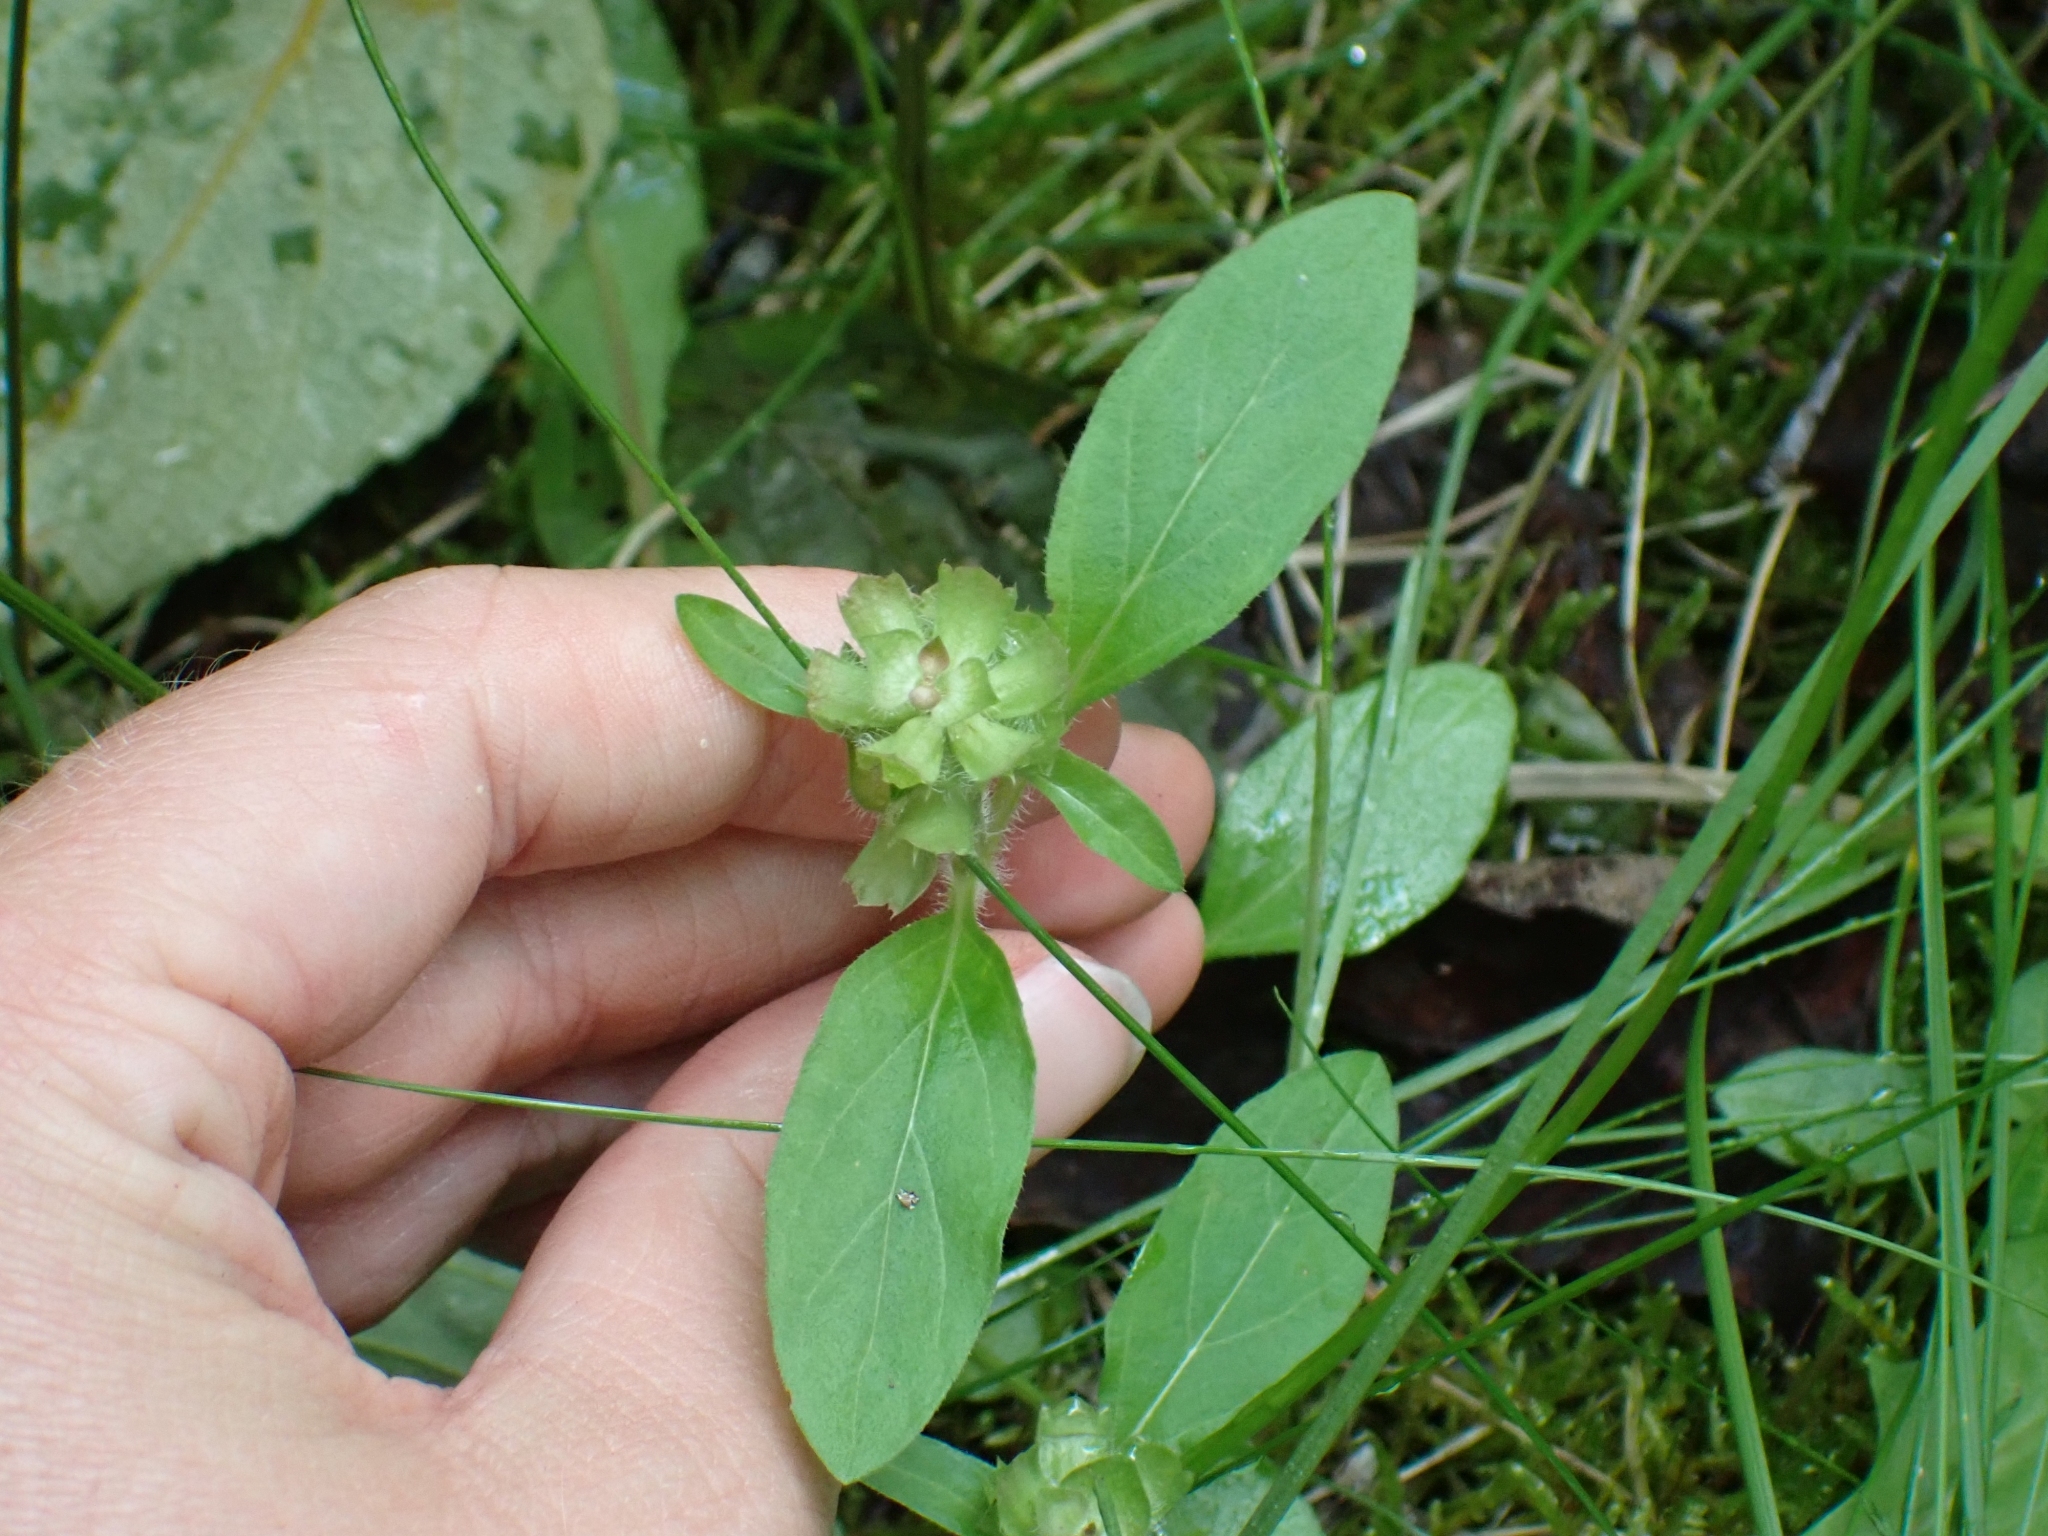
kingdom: Plantae
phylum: Tracheophyta
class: Magnoliopsida
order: Lamiales
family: Lamiaceae
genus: Prunella
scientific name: Prunella vulgaris
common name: Heal-all
